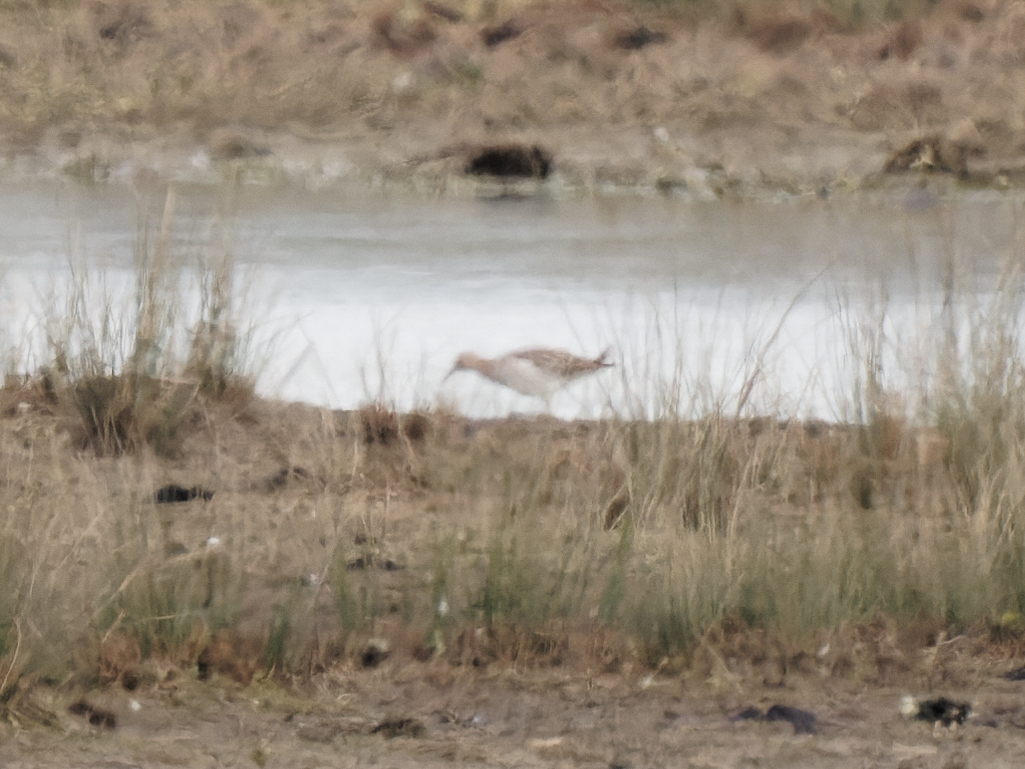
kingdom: Animalia
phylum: Chordata
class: Aves
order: Charadriiformes
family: Scolopacidae
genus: Calidris
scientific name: Calidris pugnax
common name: Ruff
